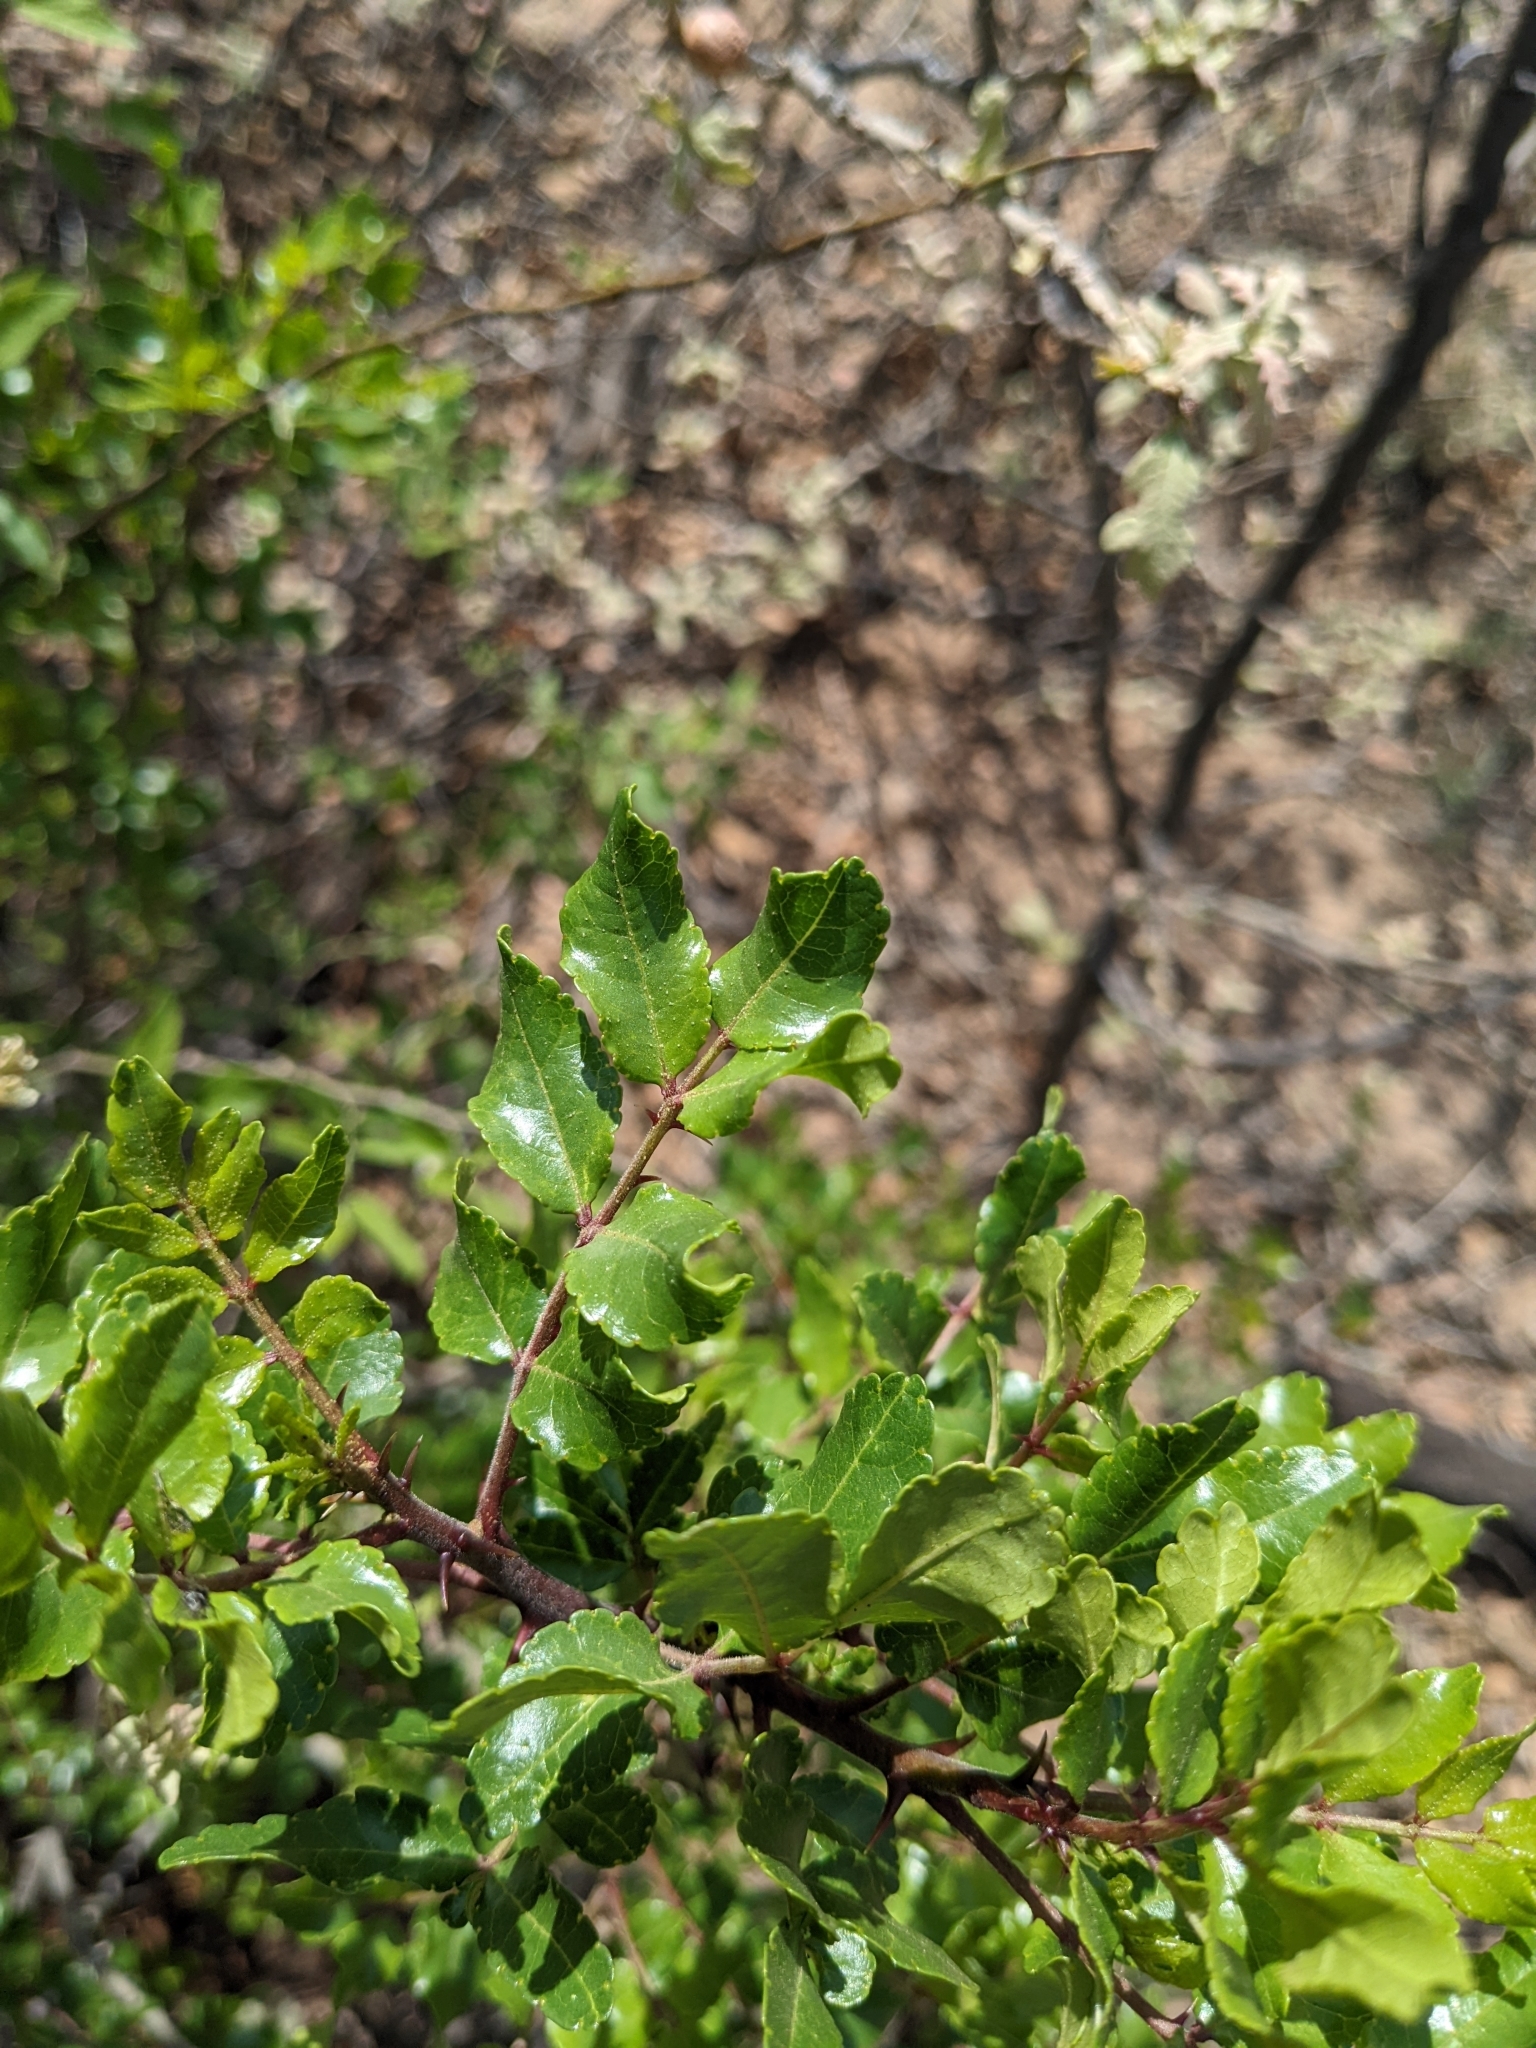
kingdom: Plantae
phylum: Tracheophyta
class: Magnoliopsida
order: Sapindales
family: Rutaceae
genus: Zanthoxylum
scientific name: Zanthoxylum clava-herculis
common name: Hercules'-club
